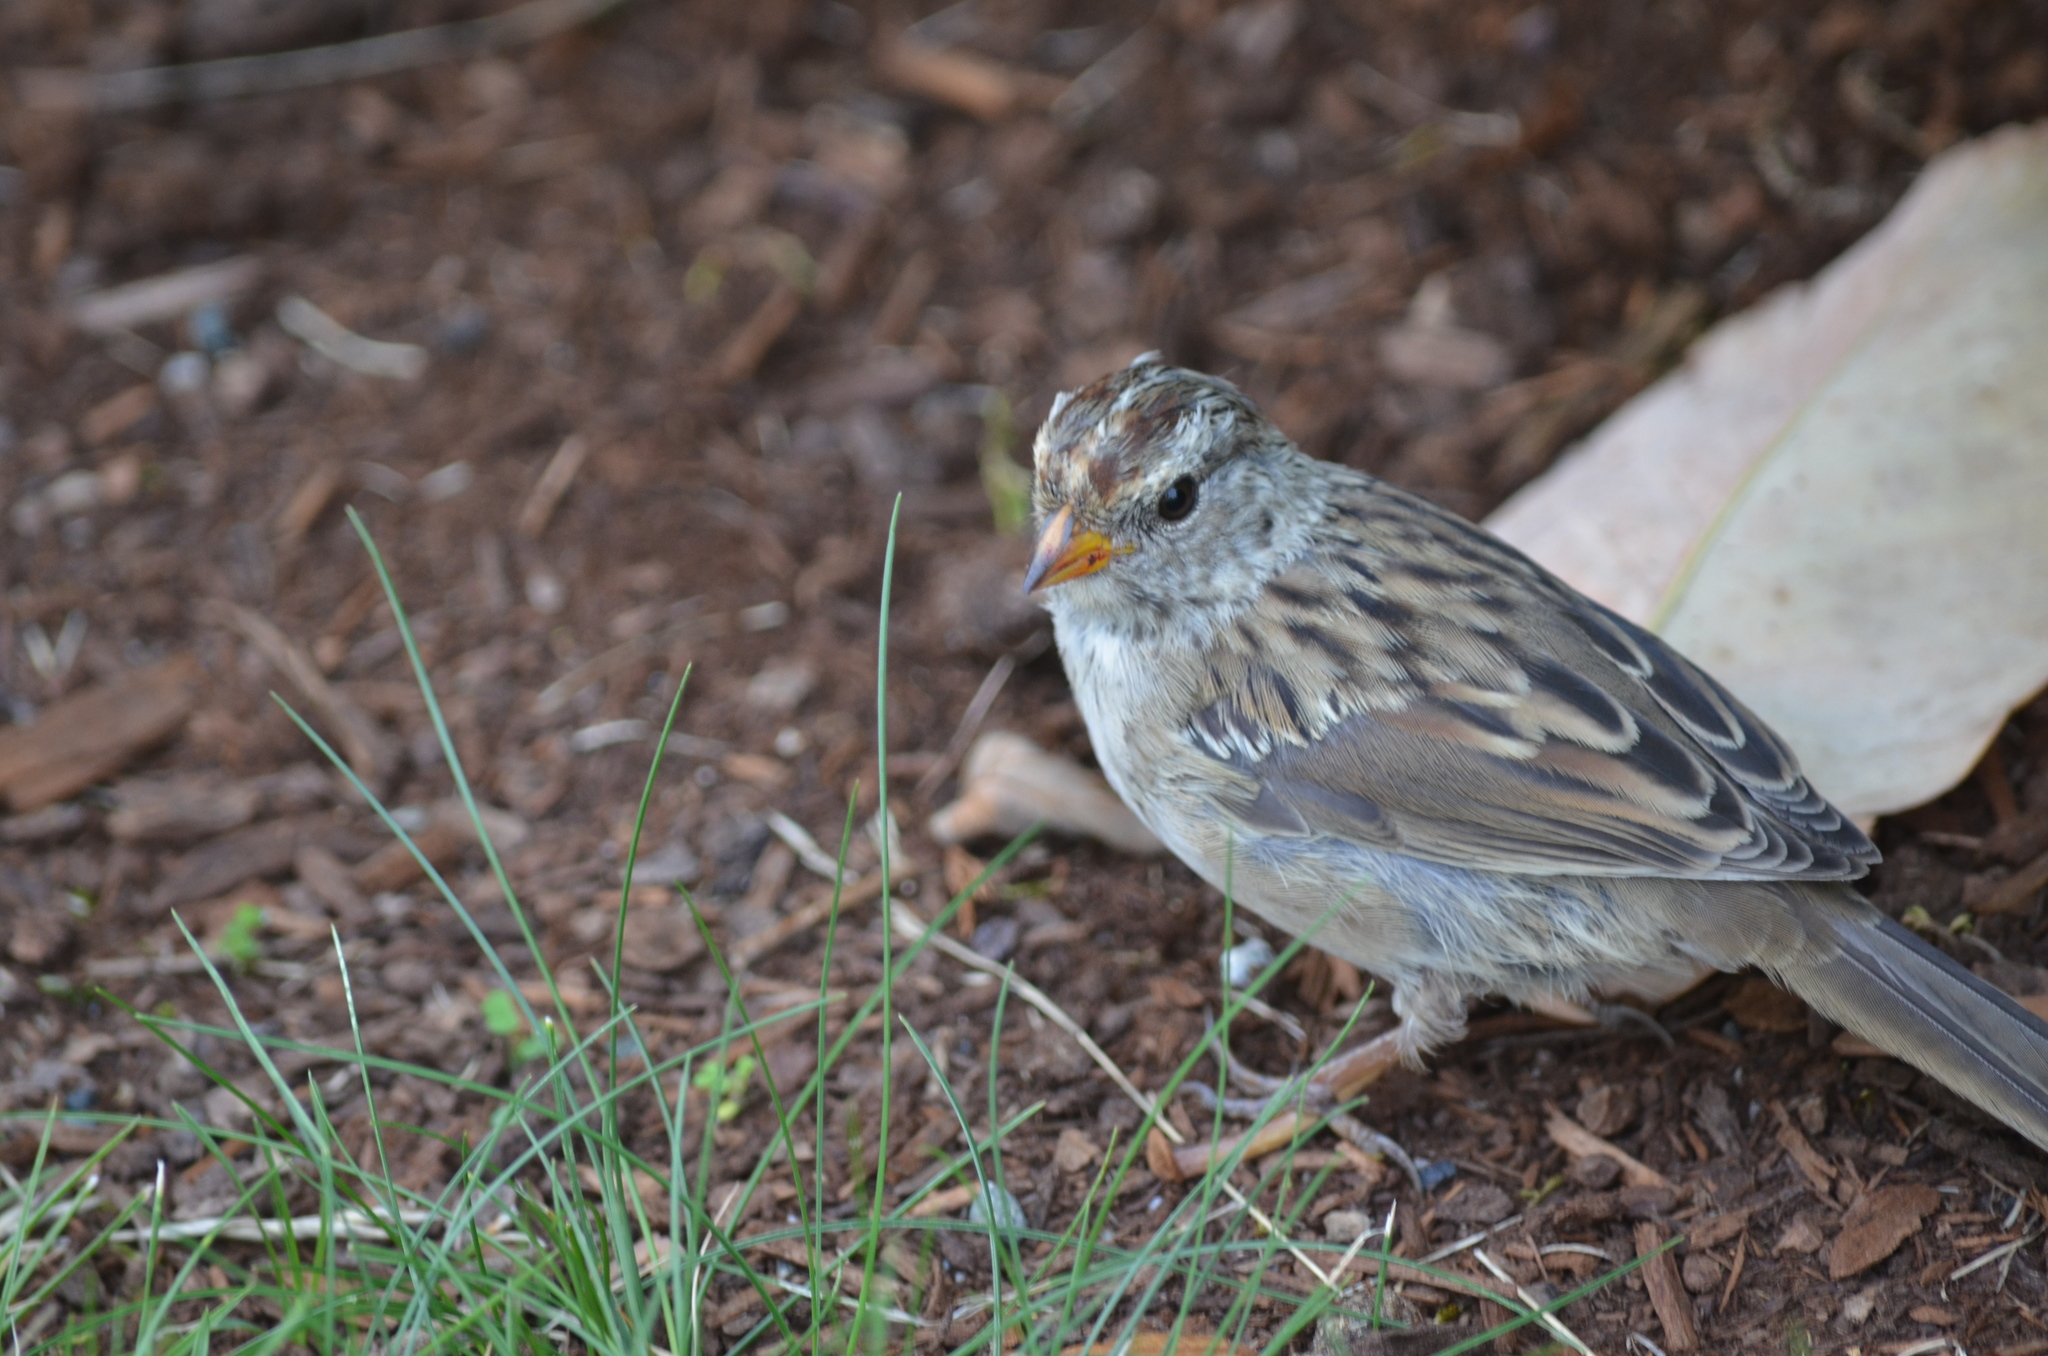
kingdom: Animalia
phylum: Chordata
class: Aves
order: Passeriformes
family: Passerellidae
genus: Zonotrichia
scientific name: Zonotrichia leucophrys
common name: White-crowned sparrow
